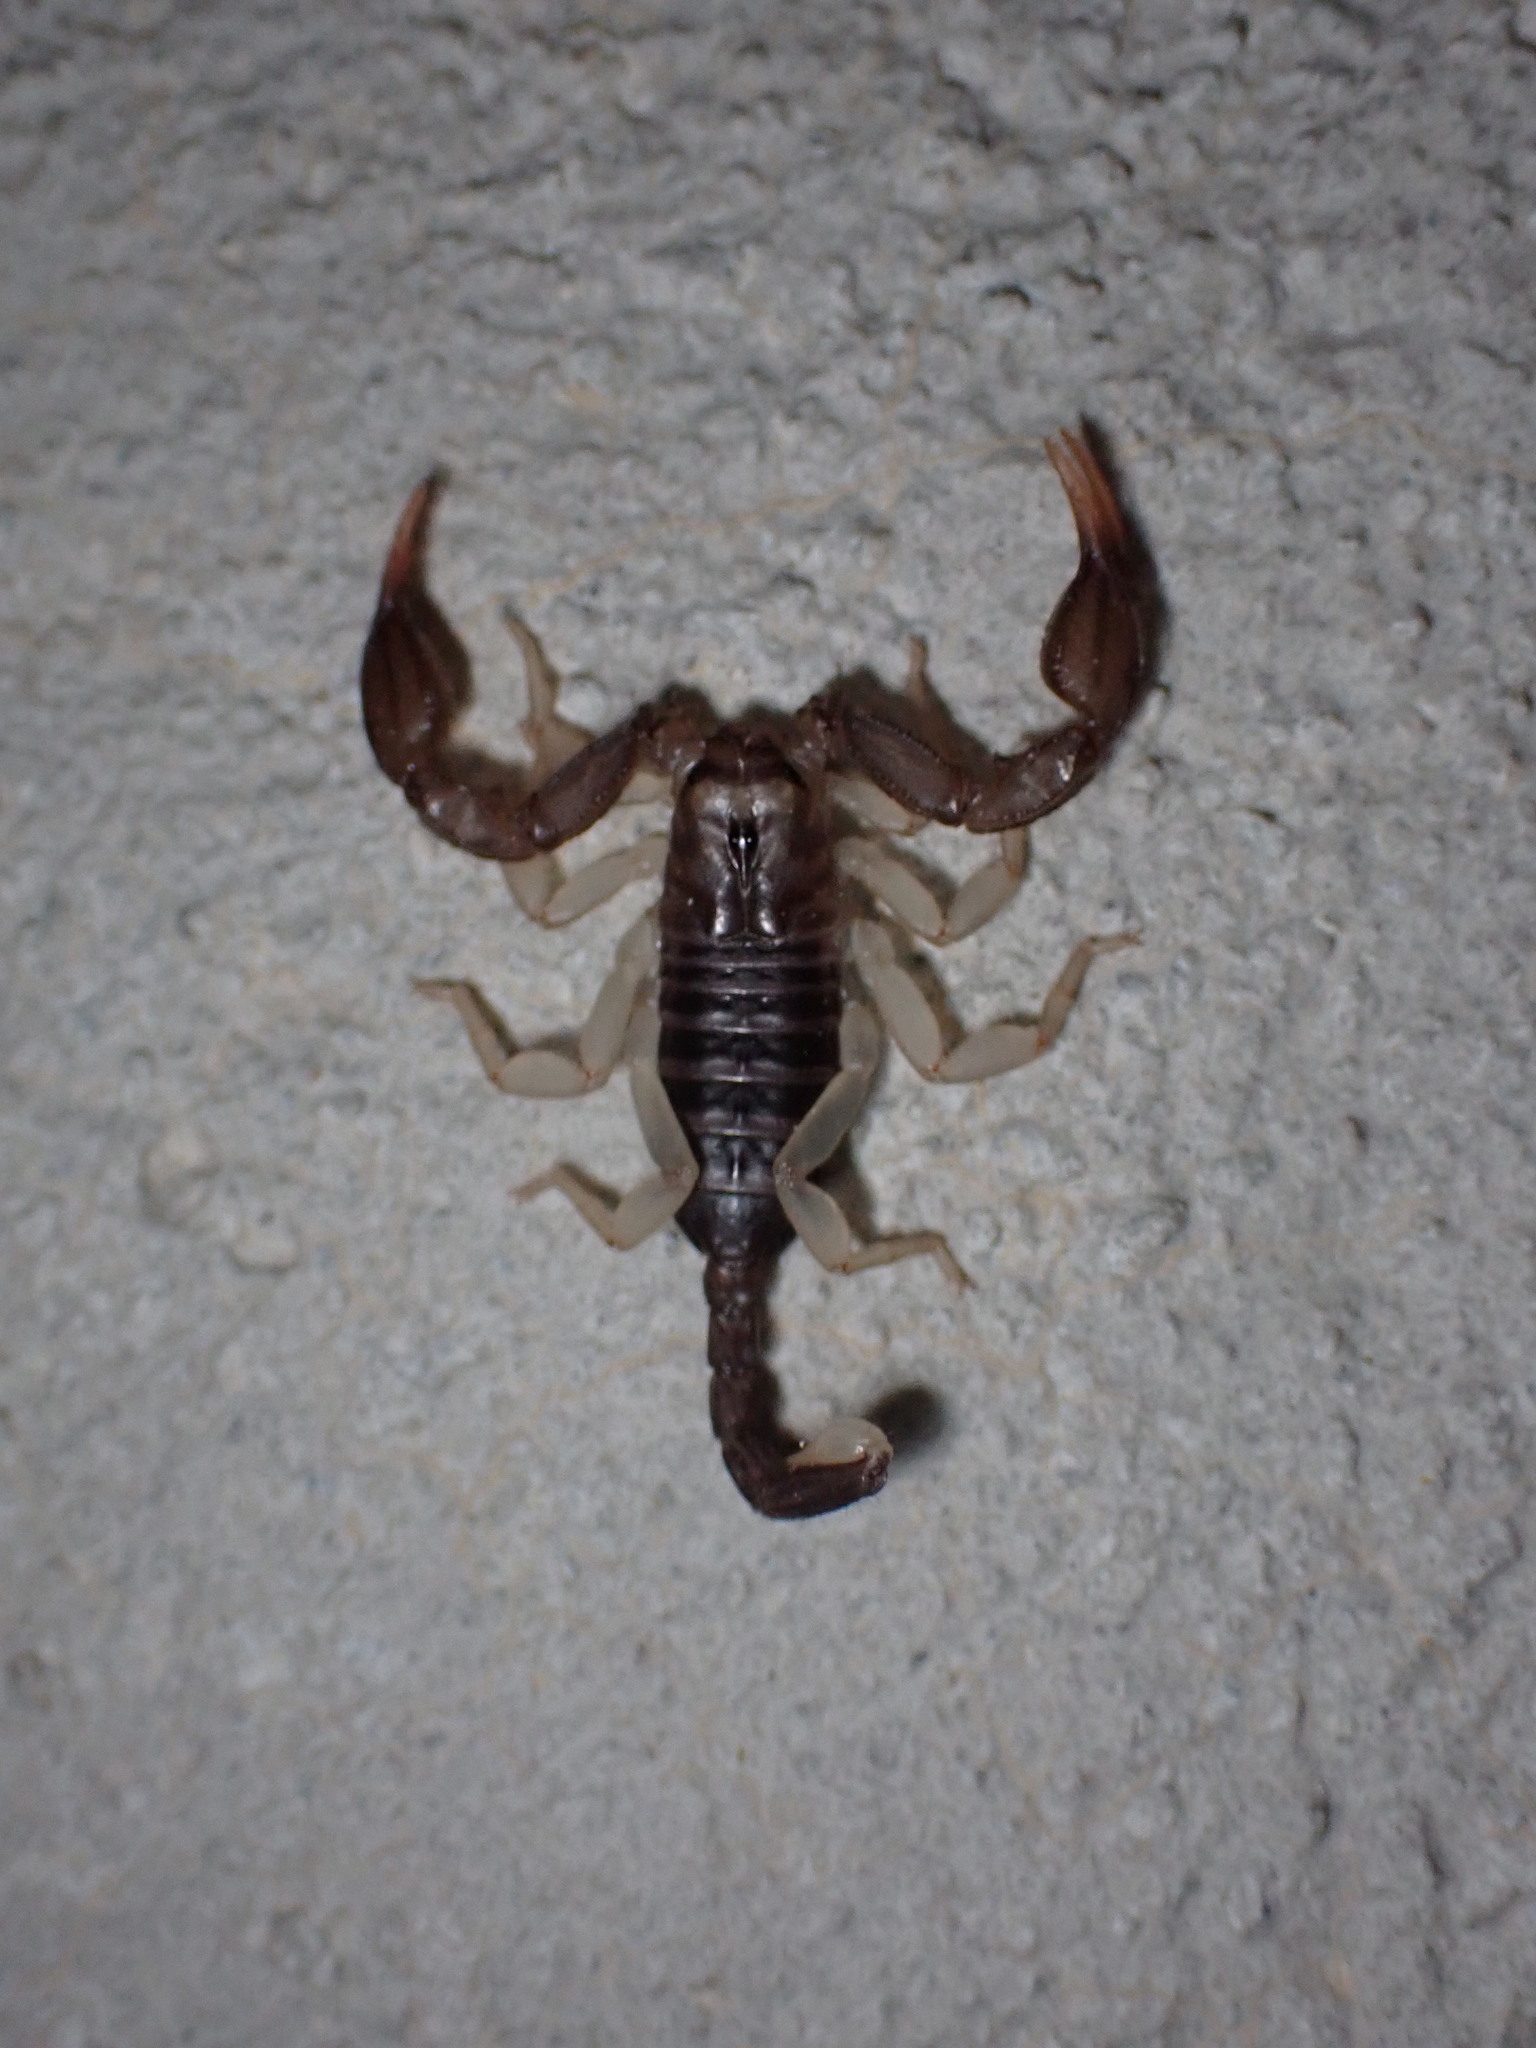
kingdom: Animalia
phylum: Arthropoda
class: Arachnida
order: Scorpiones
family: Euscorpiidae
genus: Euscorpius
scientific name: Euscorpius
